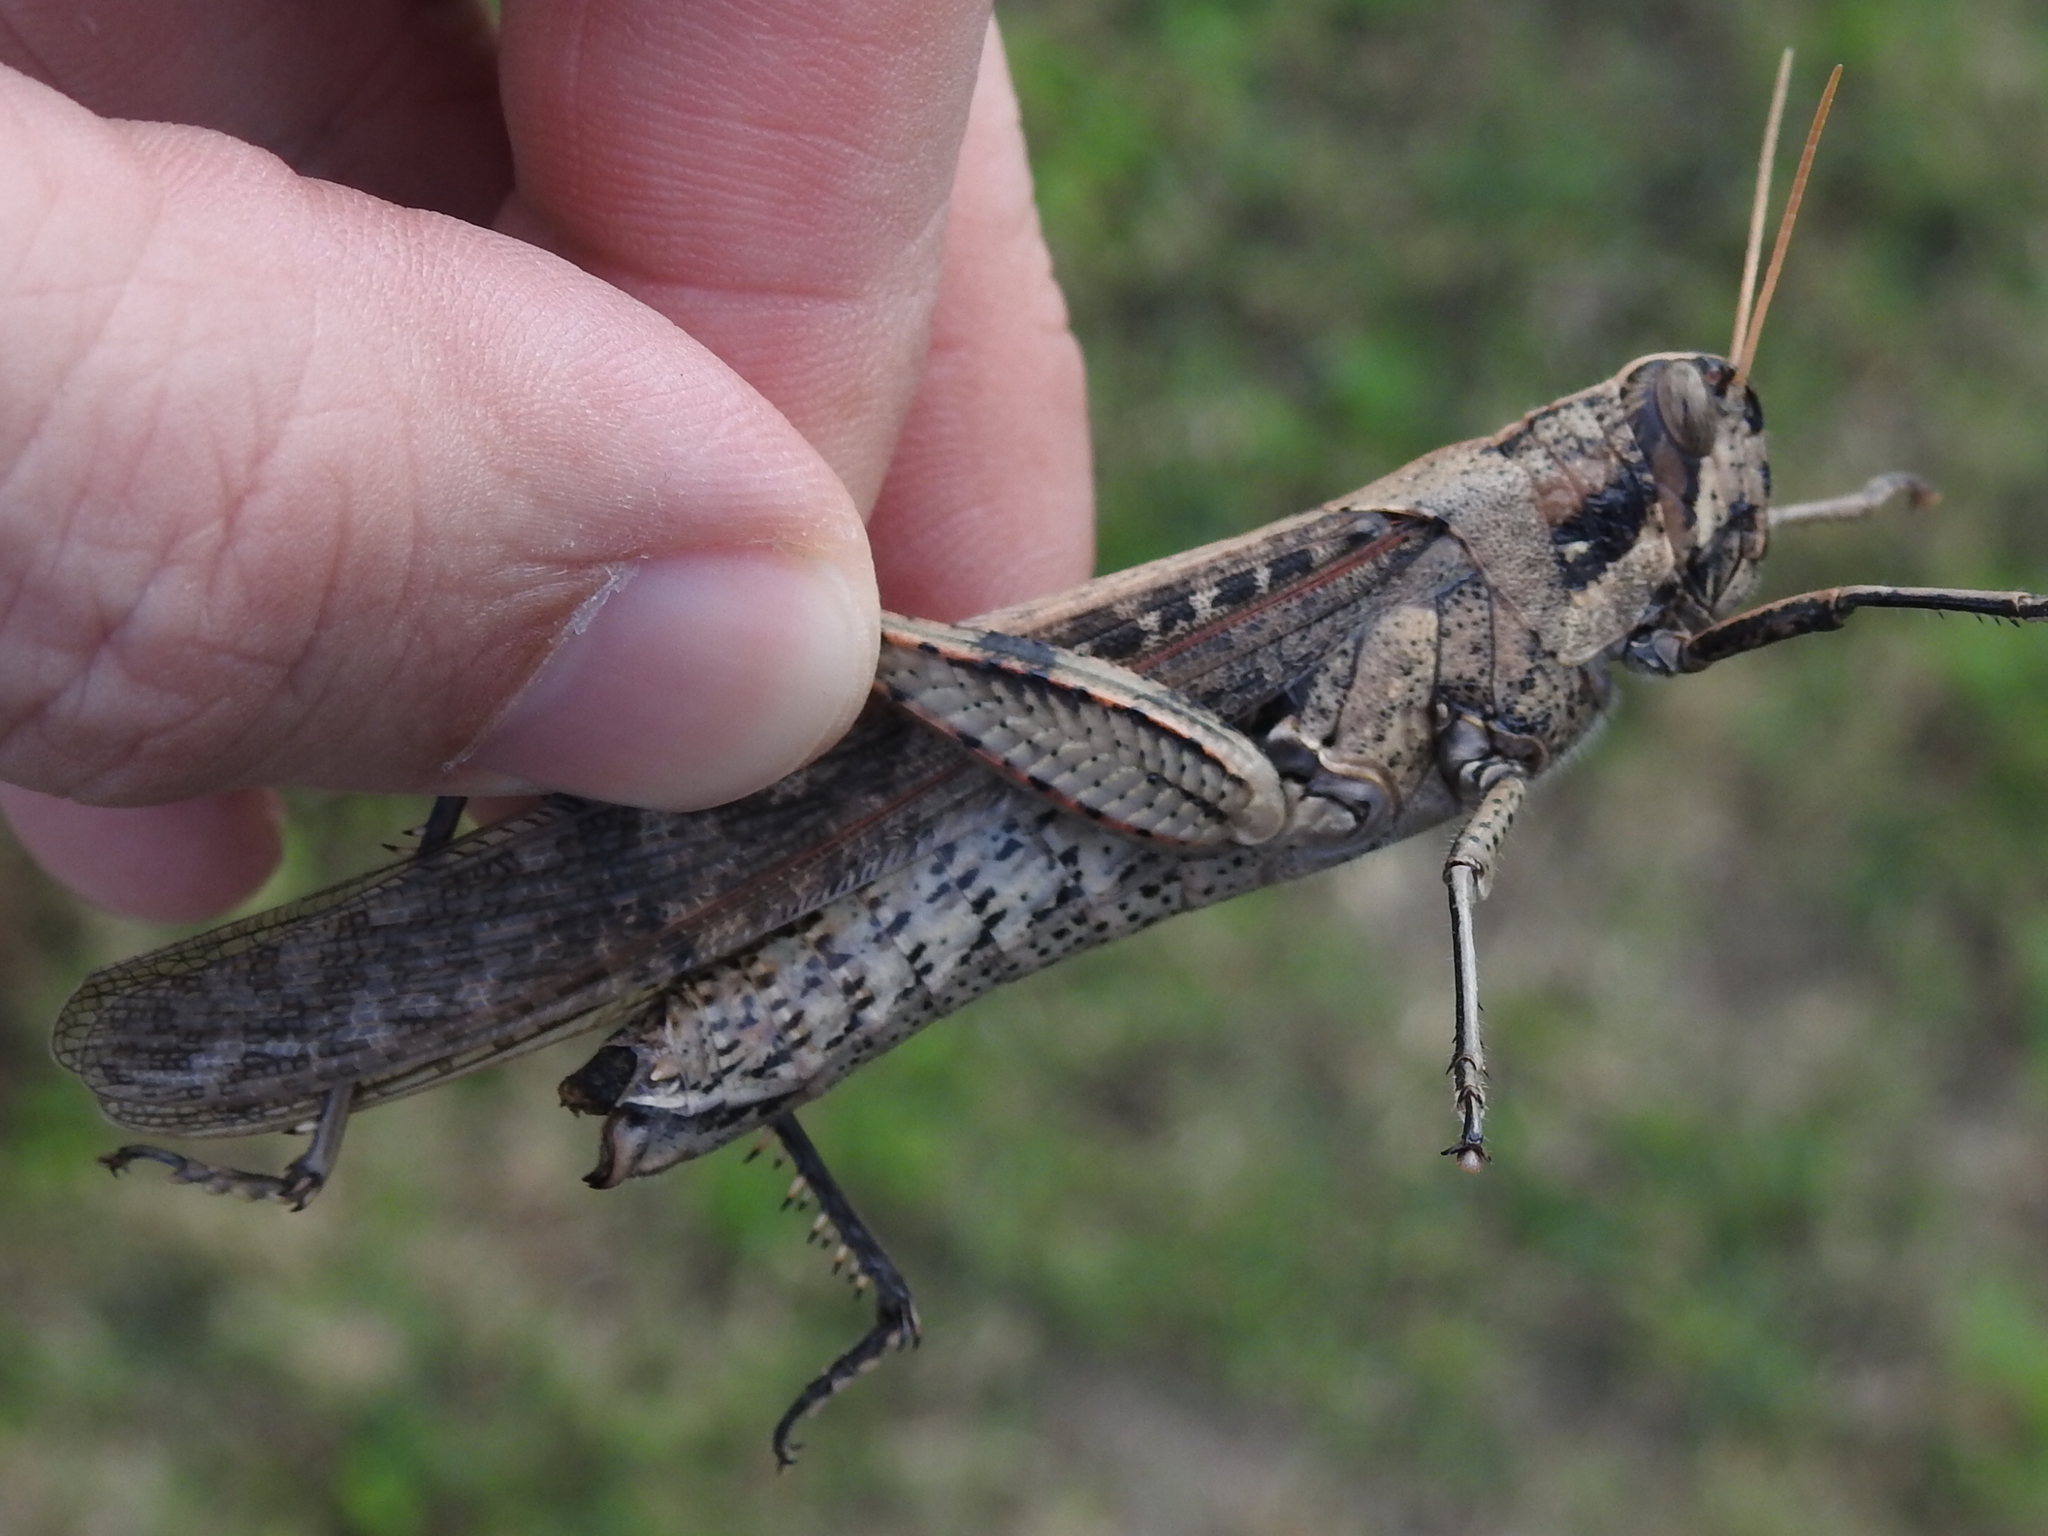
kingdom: Animalia
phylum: Arthropoda
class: Insecta
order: Orthoptera
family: Acrididae
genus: Schistocerca
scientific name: Schistocerca nitens
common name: Vagrant grasshopper
